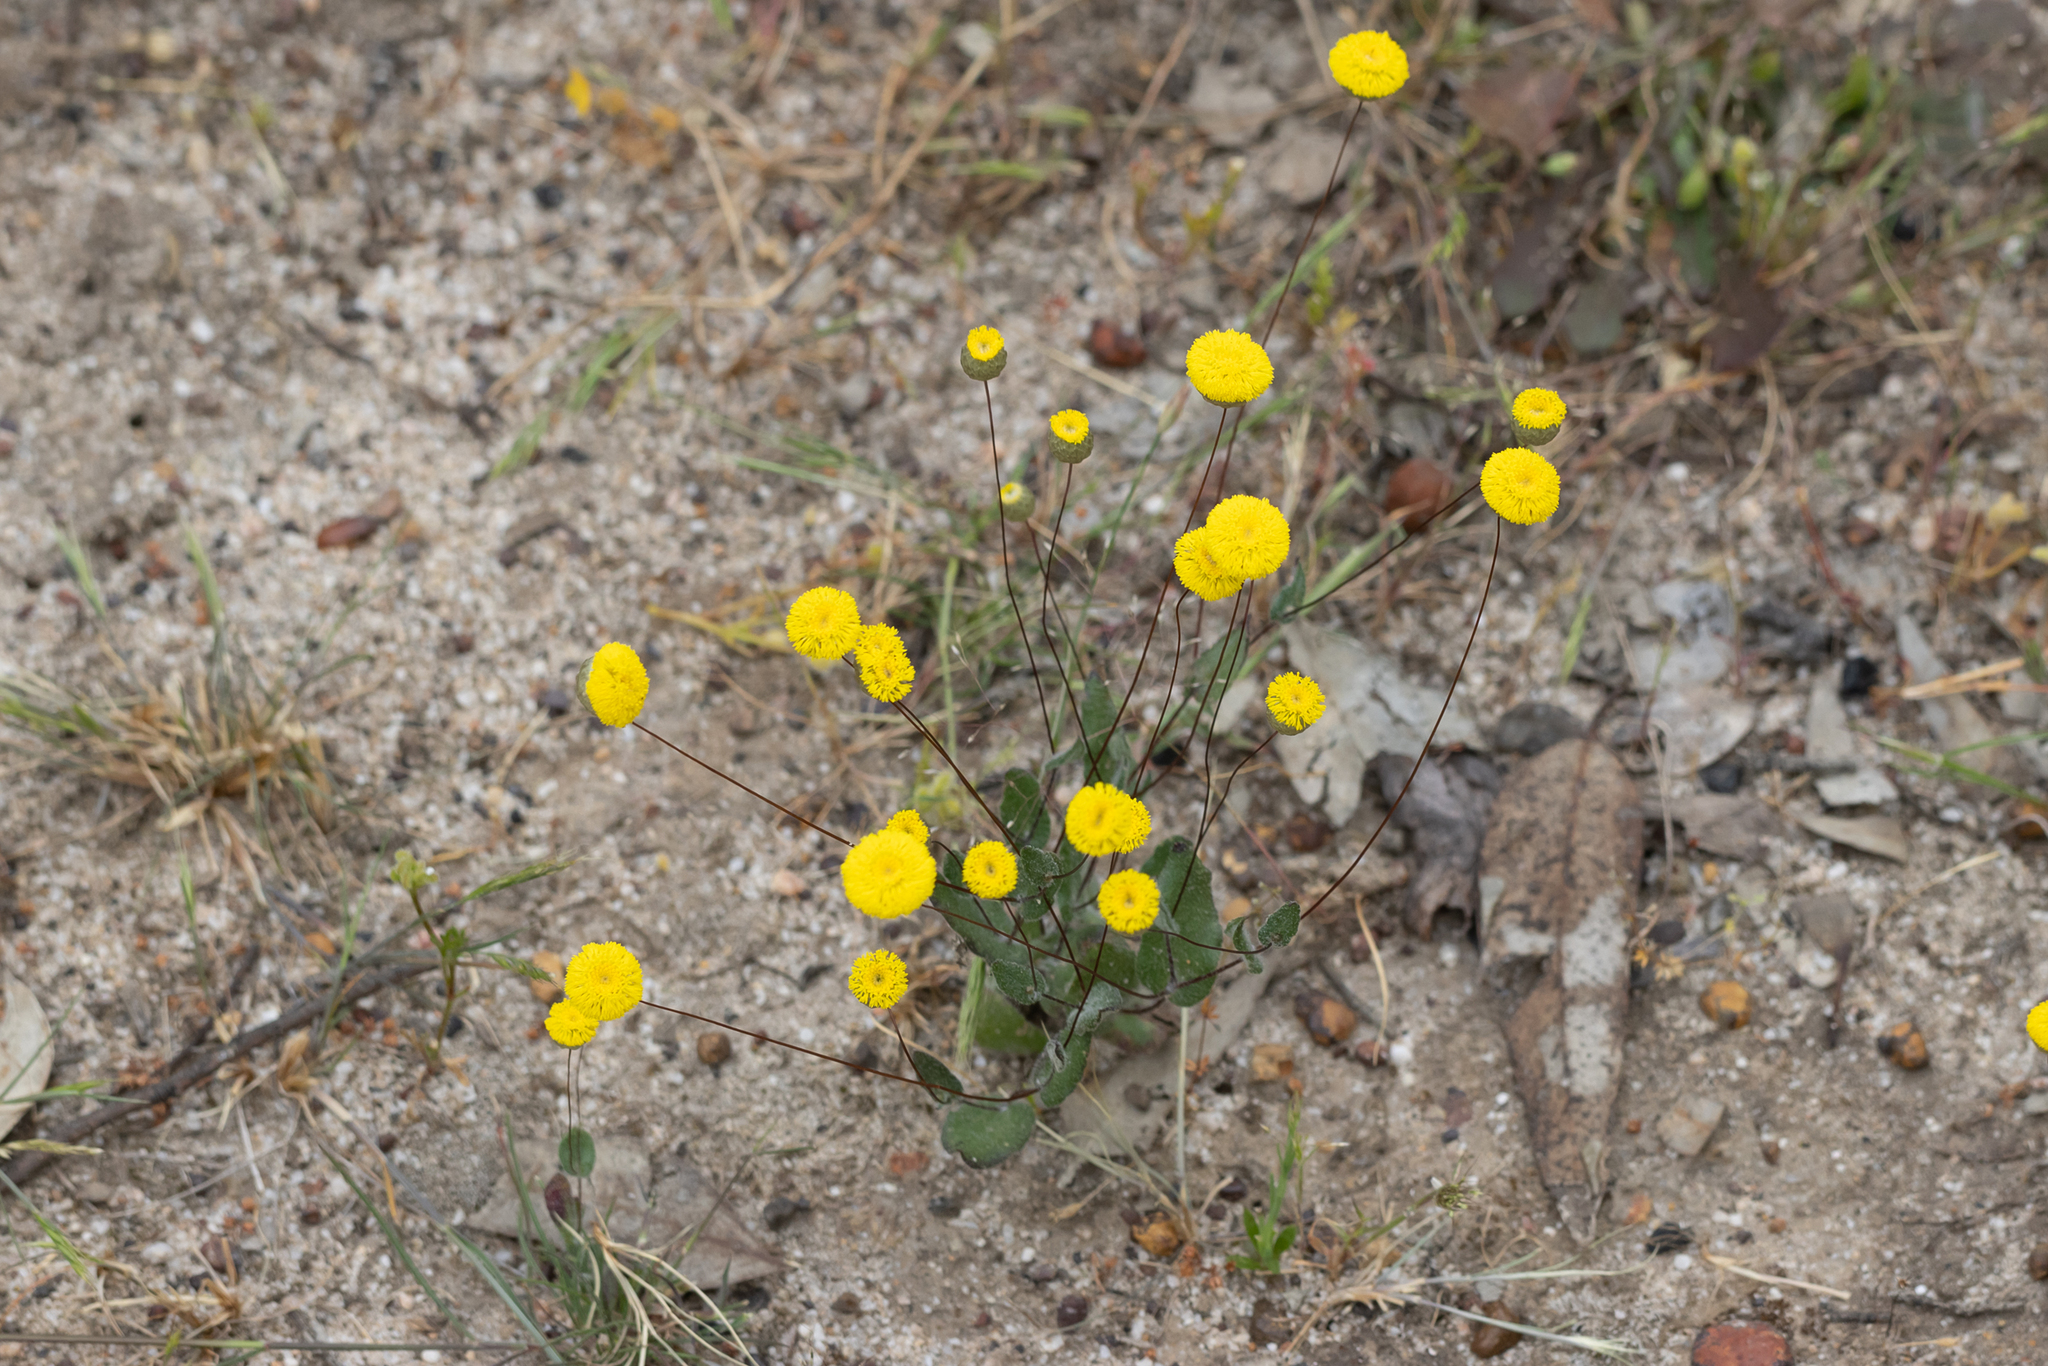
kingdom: Plantae
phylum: Tracheophyta
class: Magnoliopsida
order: Asterales
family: Asteraceae
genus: Panaetia
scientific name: Panaetia lessonii
